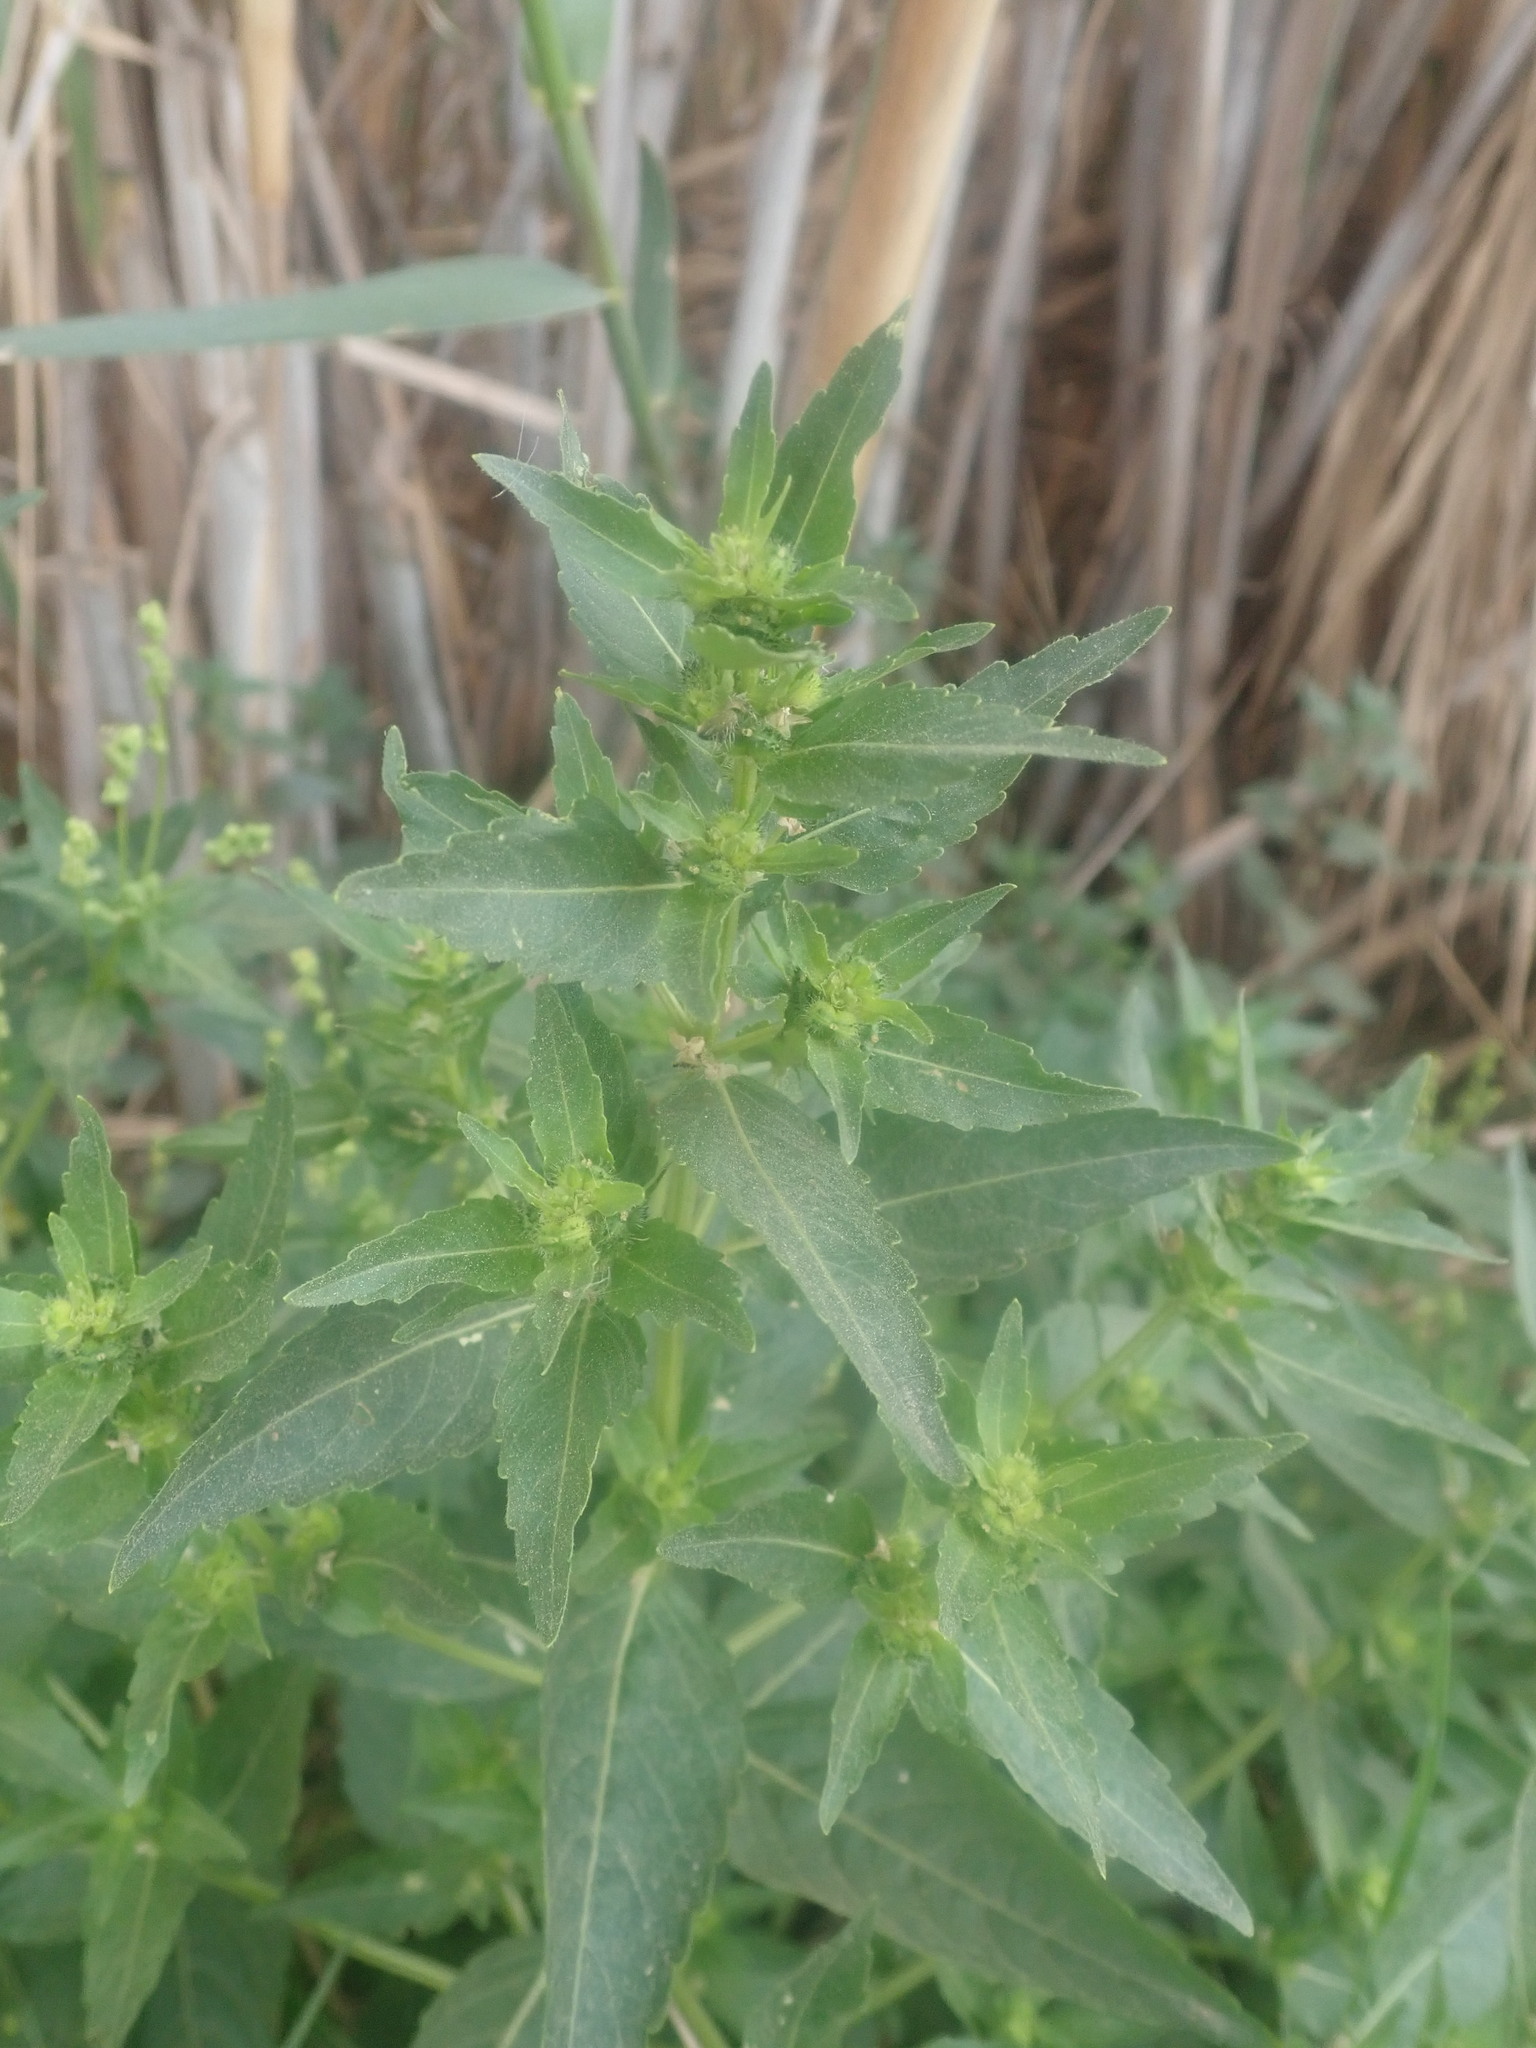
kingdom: Plantae
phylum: Tracheophyta
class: Magnoliopsida
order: Malpighiales
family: Euphorbiaceae
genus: Mercurialis
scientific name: Mercurialis annua
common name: Annual mercury
